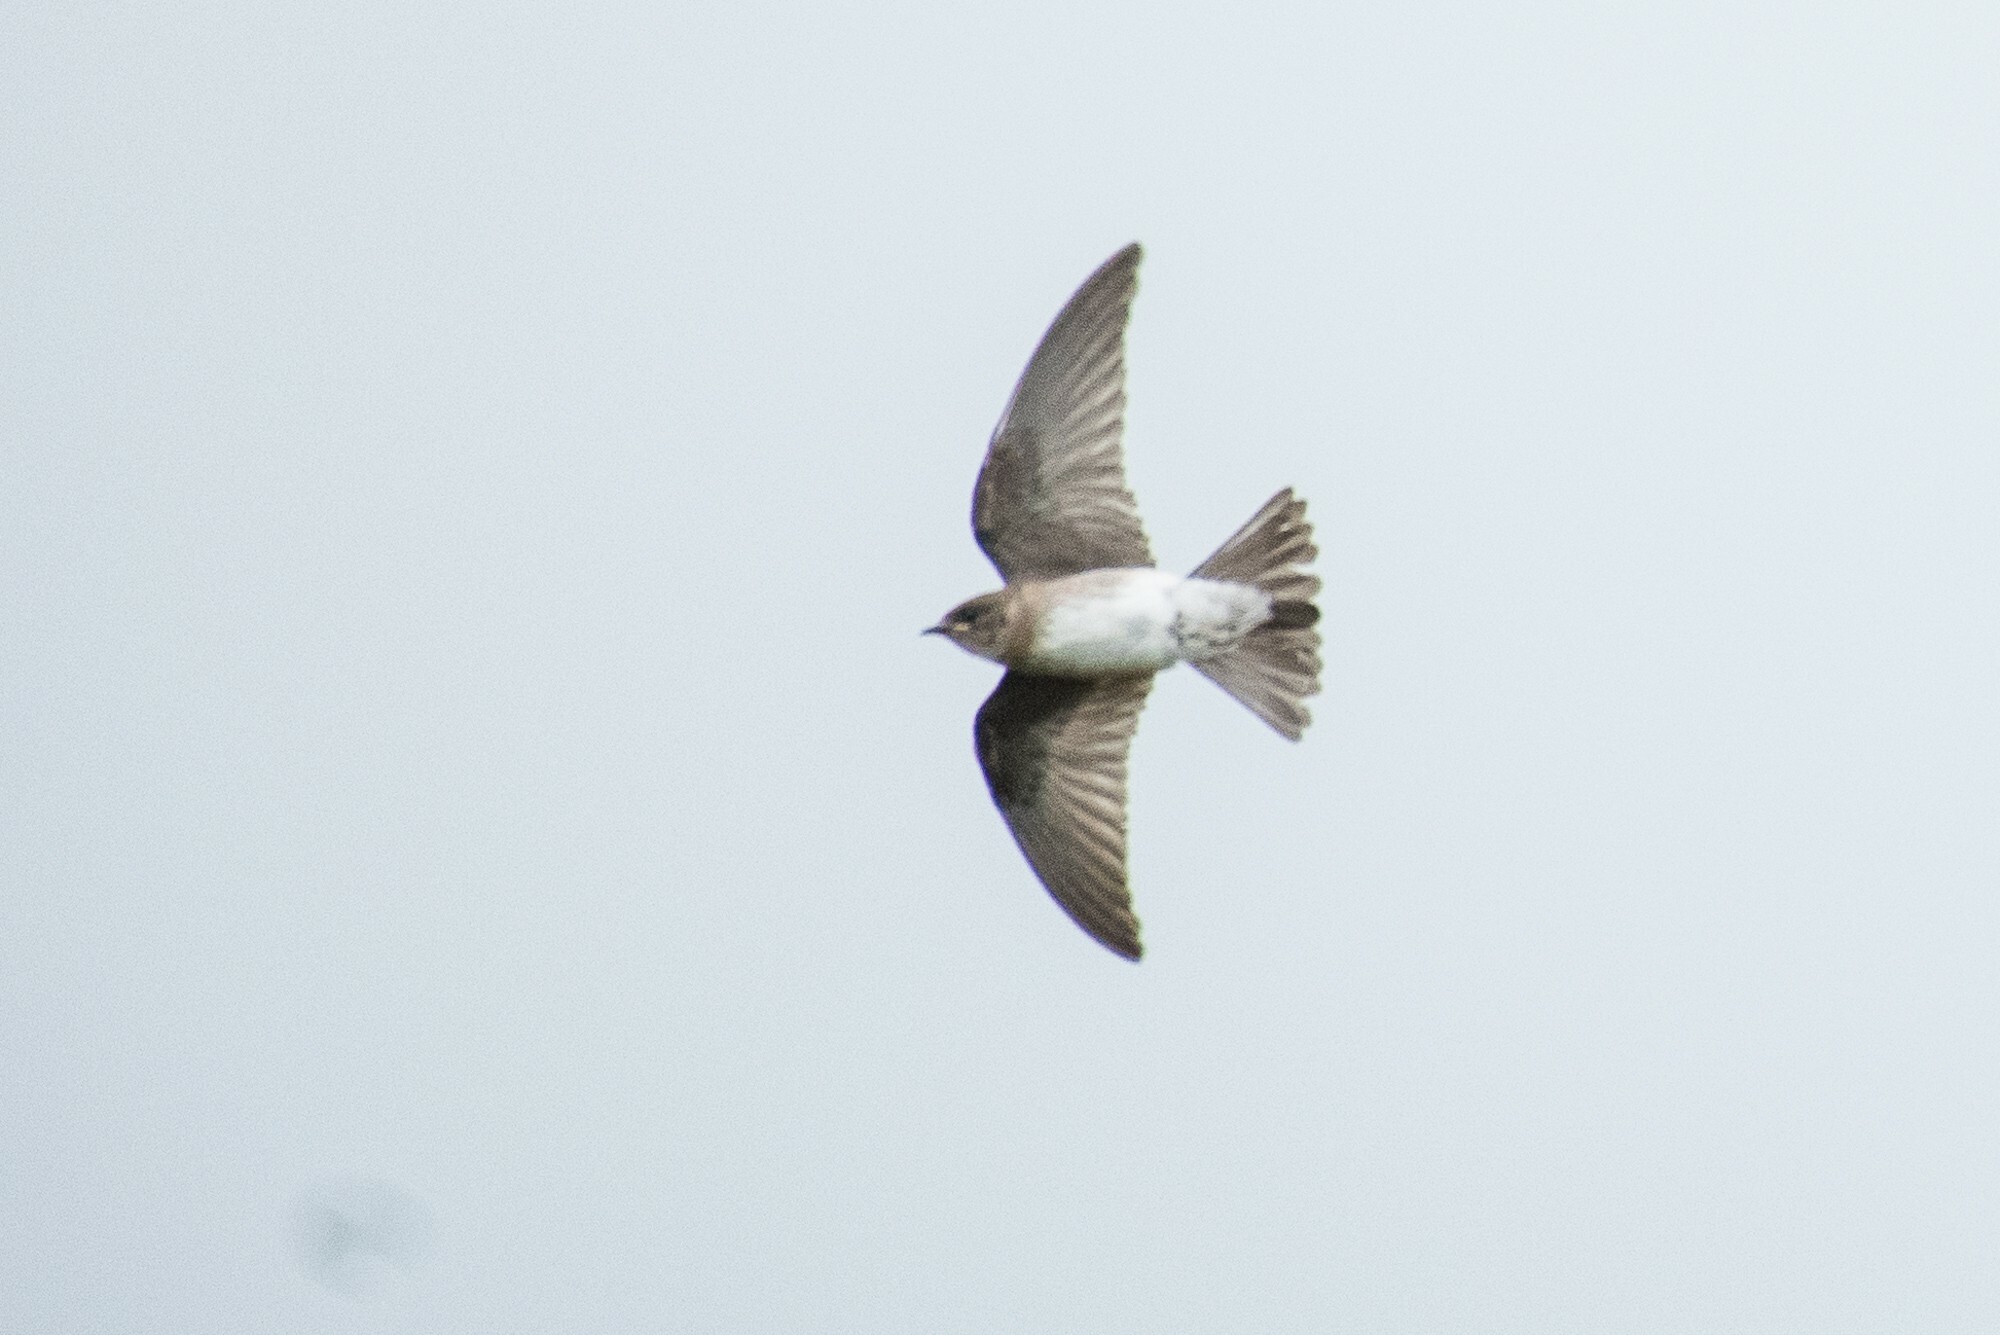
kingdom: Animalia
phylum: Chordata
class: Aves
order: Passeriformes
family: Hirundinidae
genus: Stelgidopteryx
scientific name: Stelgidopteryx serripennis
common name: Northern rough-winged swallow
